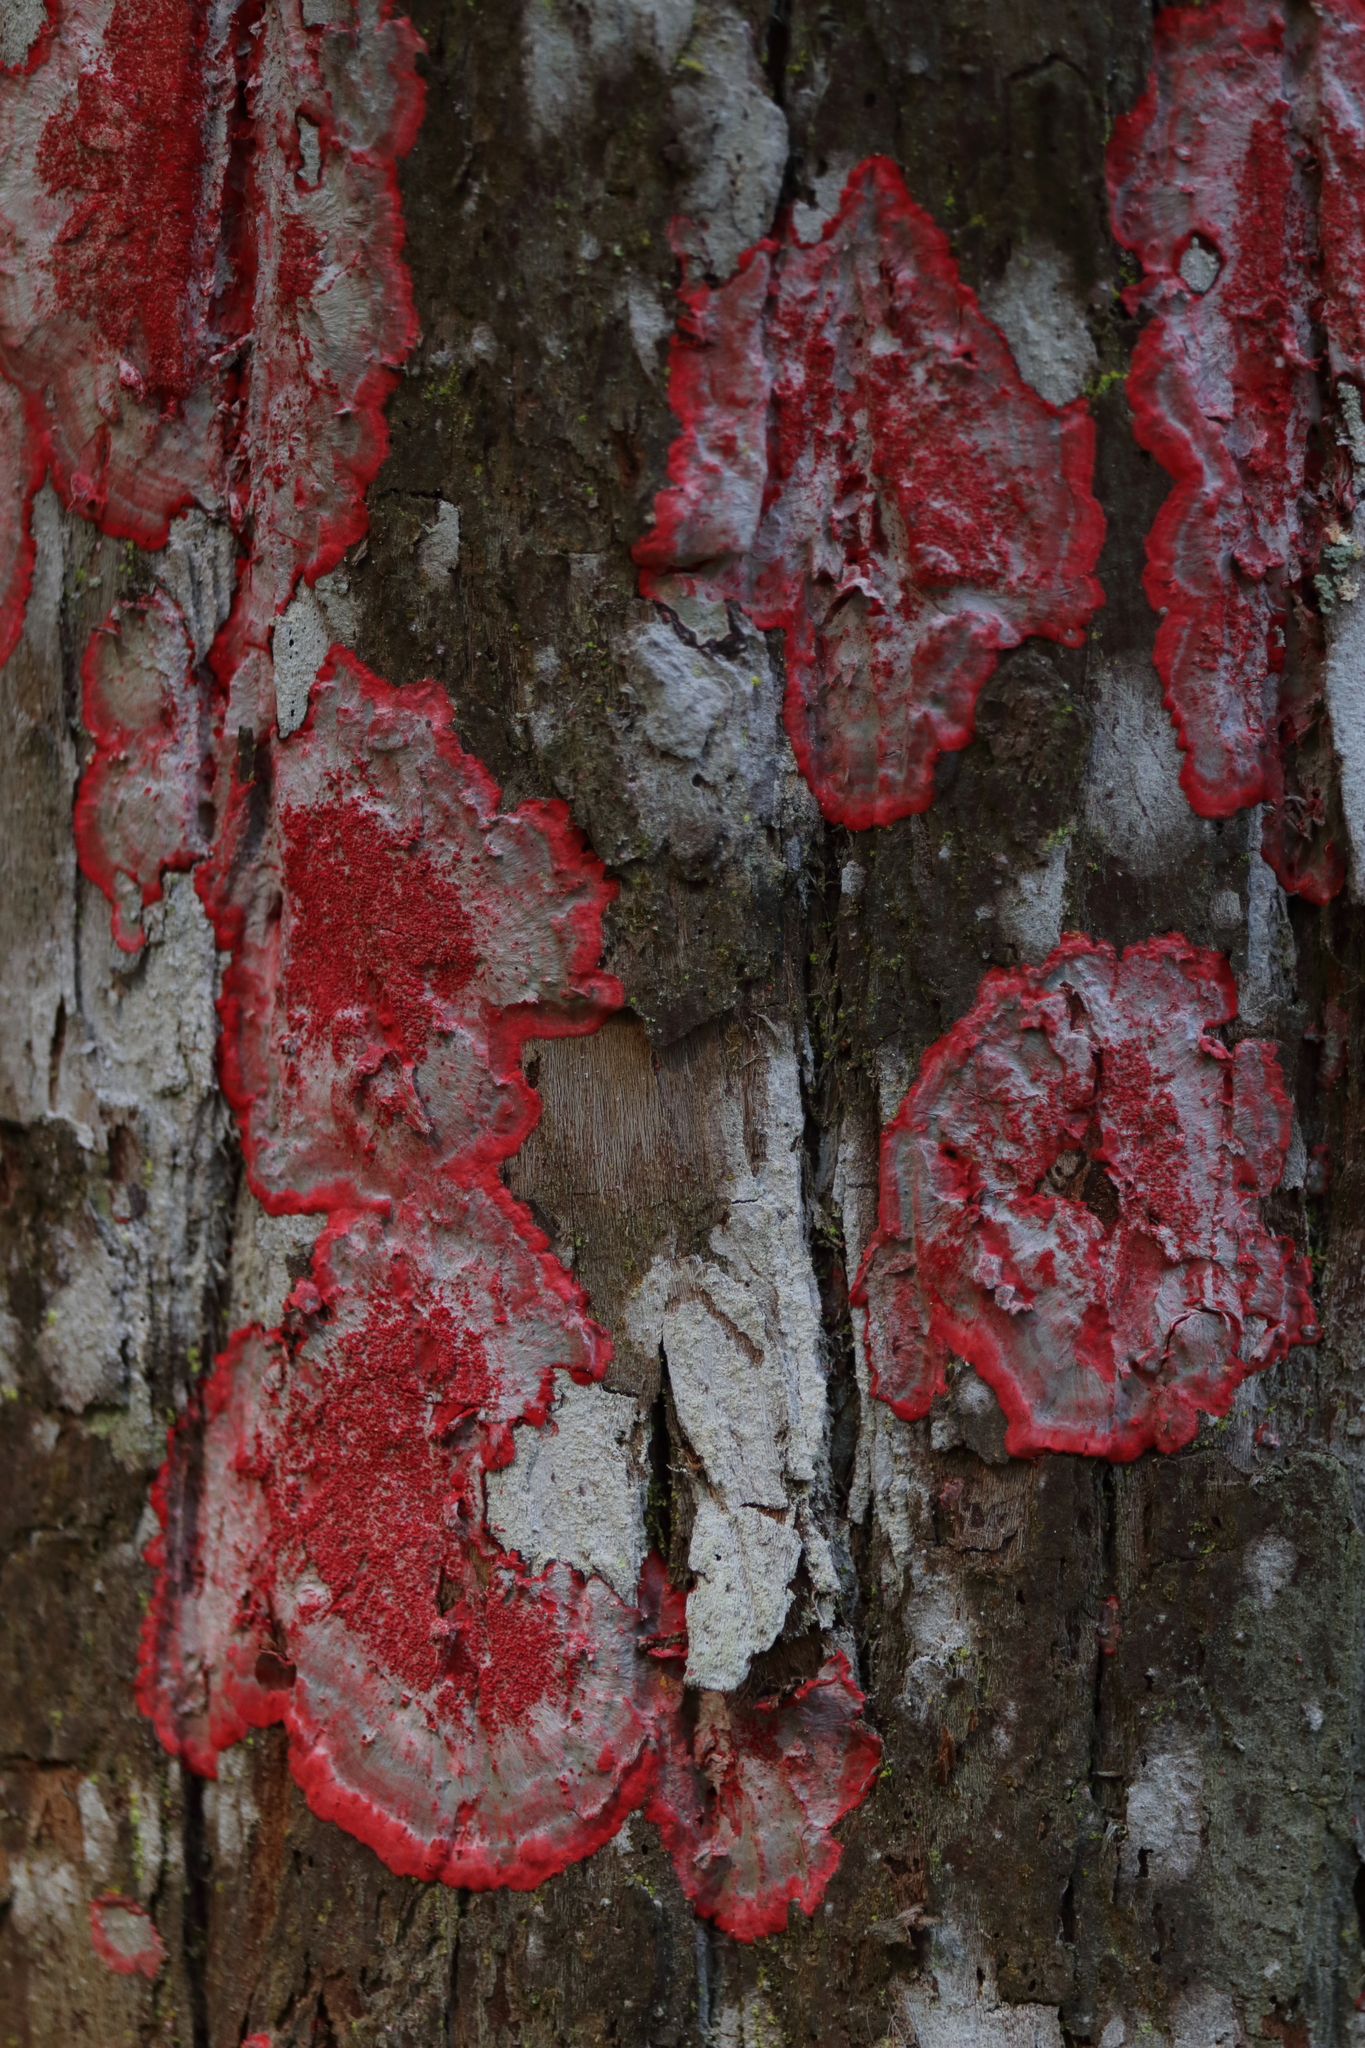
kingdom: Fungi
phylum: Ascomycota
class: Arthoniomycetes
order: Arthoniales
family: Arthoniaceae
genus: Herpothallon
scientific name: Herpothallon rubrocinctum
